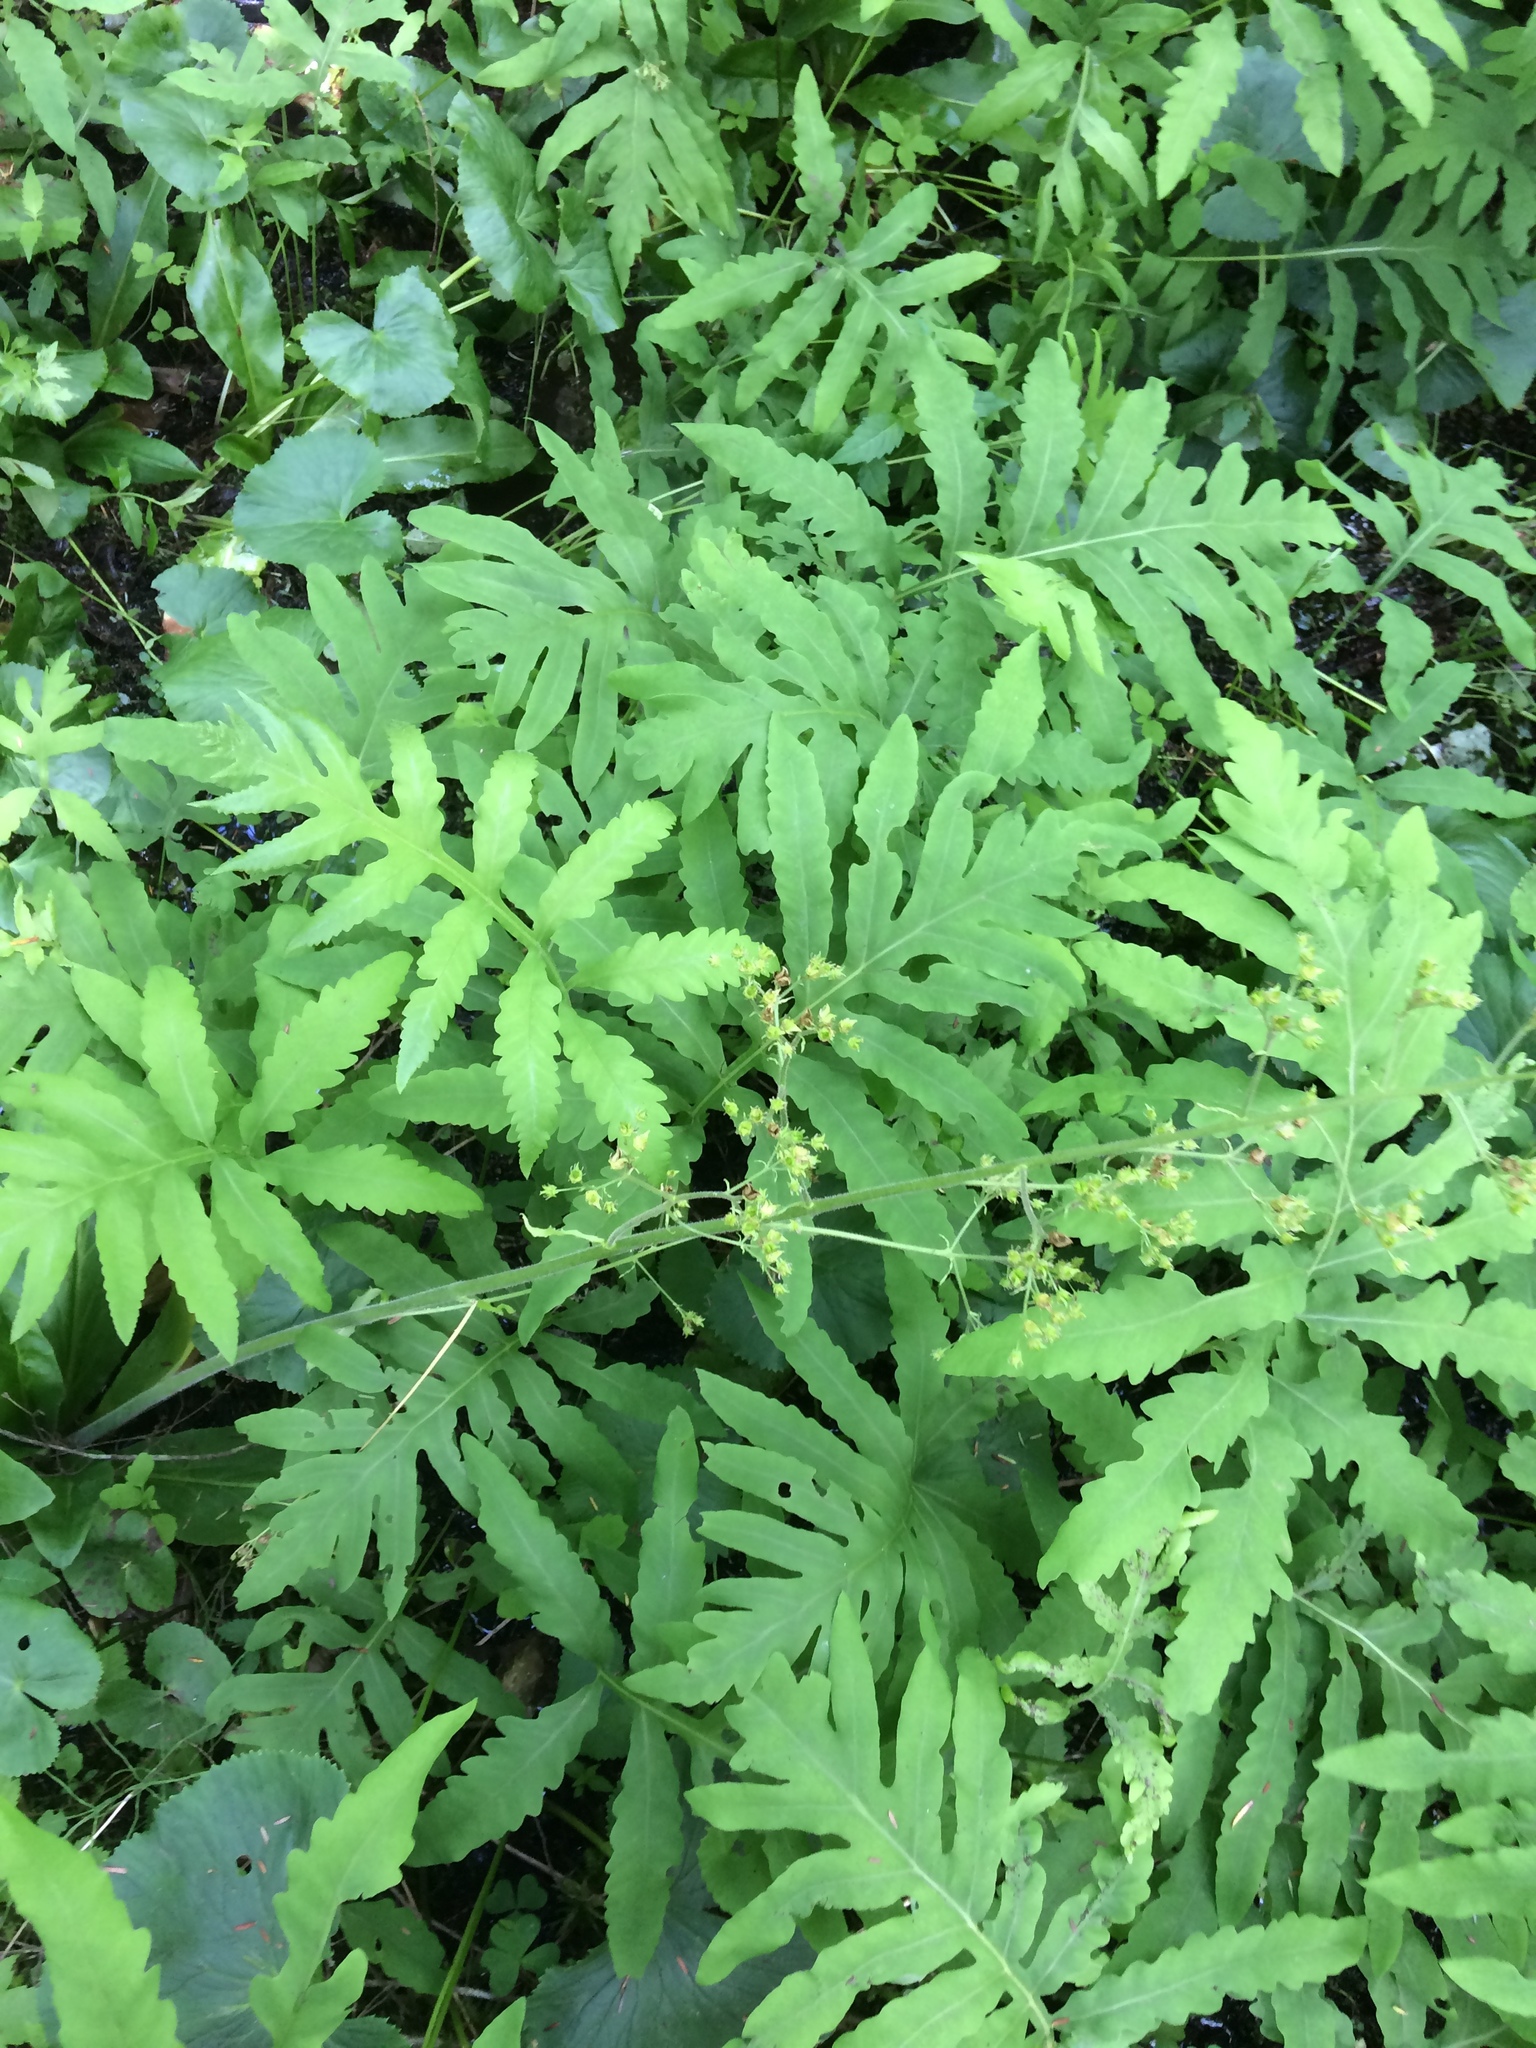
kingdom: Plantae
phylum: Tracheophyta
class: Polypodiopsida
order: Polypodiales
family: Onocleaceae
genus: Onoclea
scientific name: Onoclea sensibilis
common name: Sensitive fern
